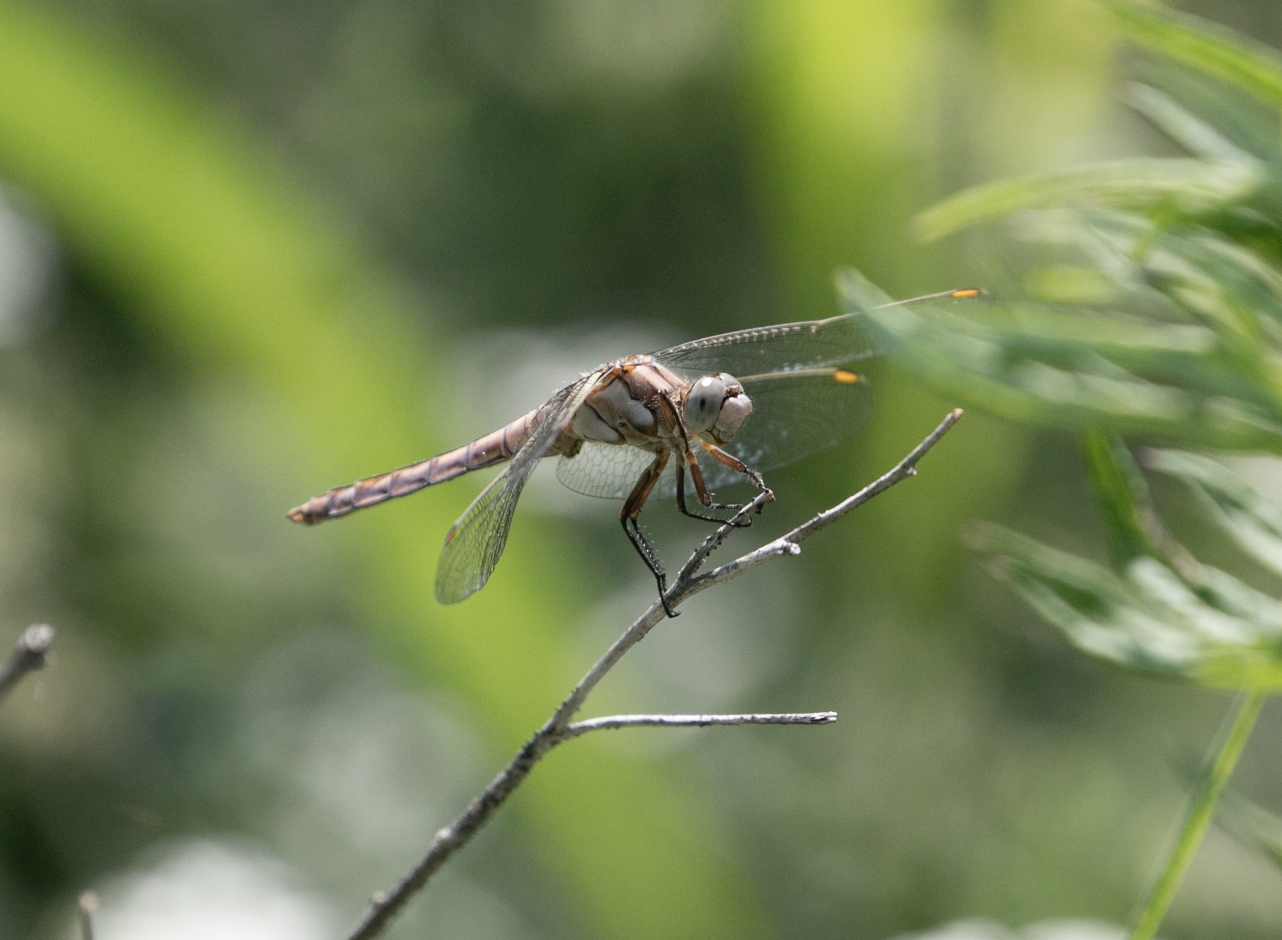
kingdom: Animalia
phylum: Arthropoda
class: Insecta
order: Odonata
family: Libellulidae
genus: Orthetrum
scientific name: Orthetrum brunneum
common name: Southern skimmer
